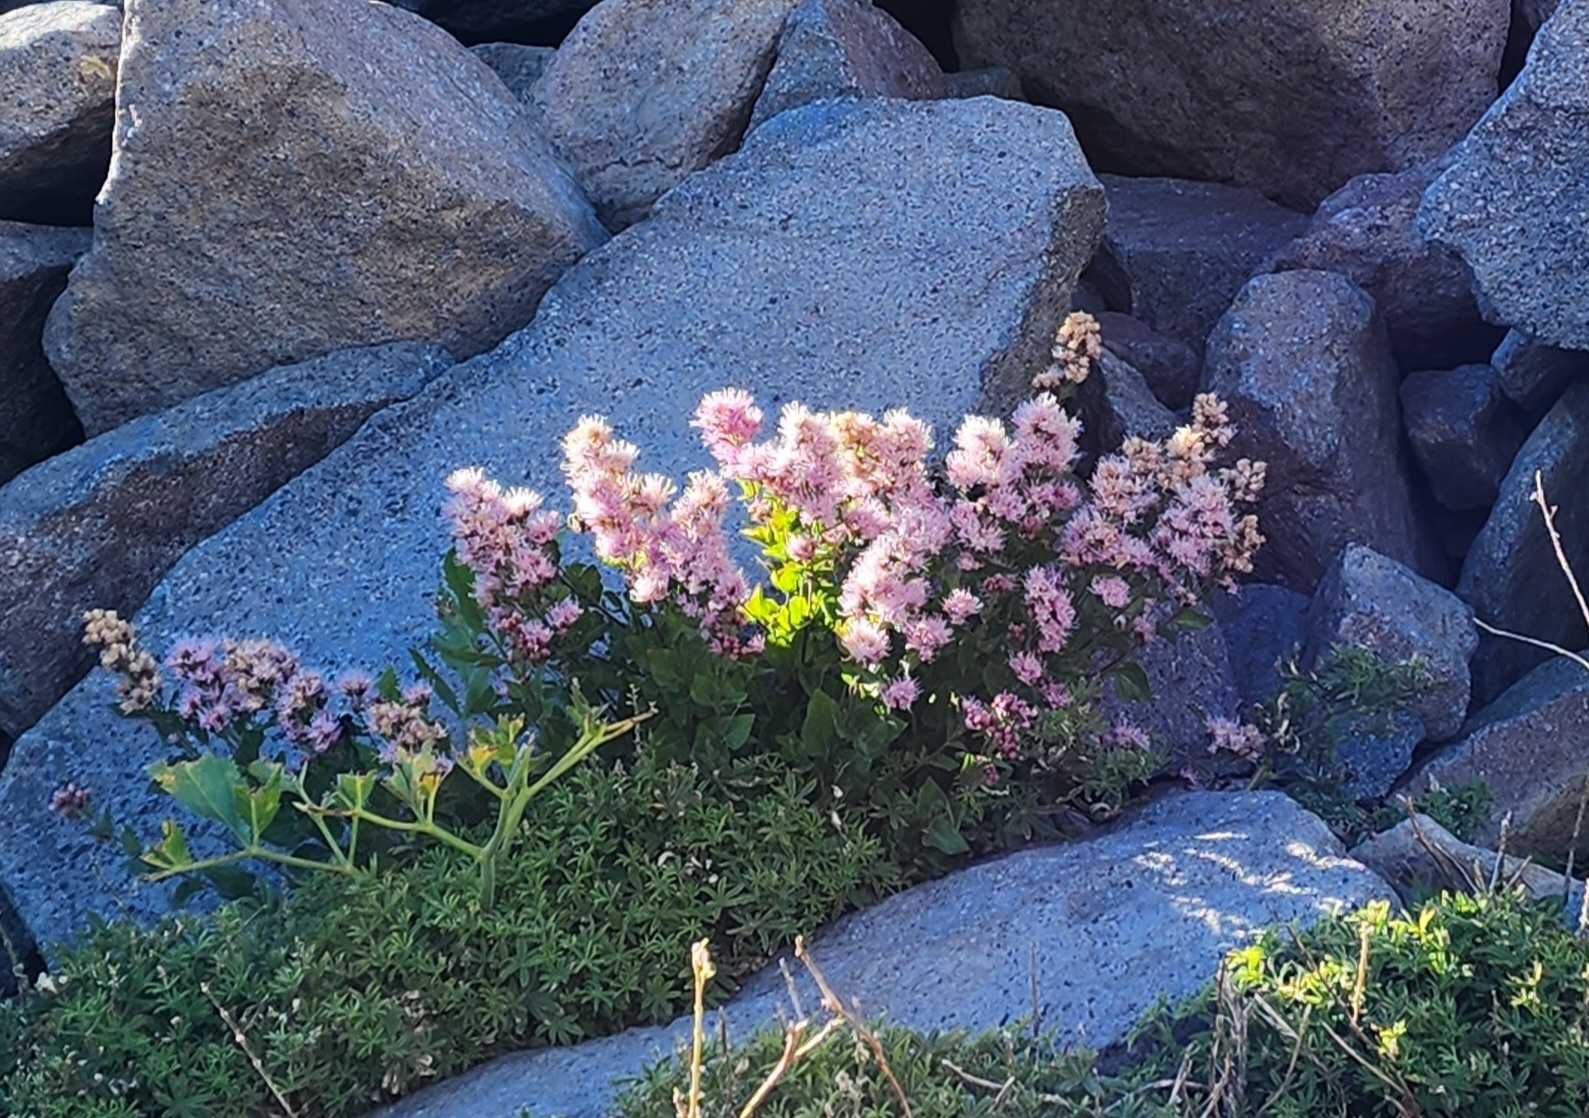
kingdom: Plantae
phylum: Tracheophyta
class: Magnoliopsida
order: Asterales
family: Asteraceae
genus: Ageratina
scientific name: Ageratina occidentalis
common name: Western snakeroot
